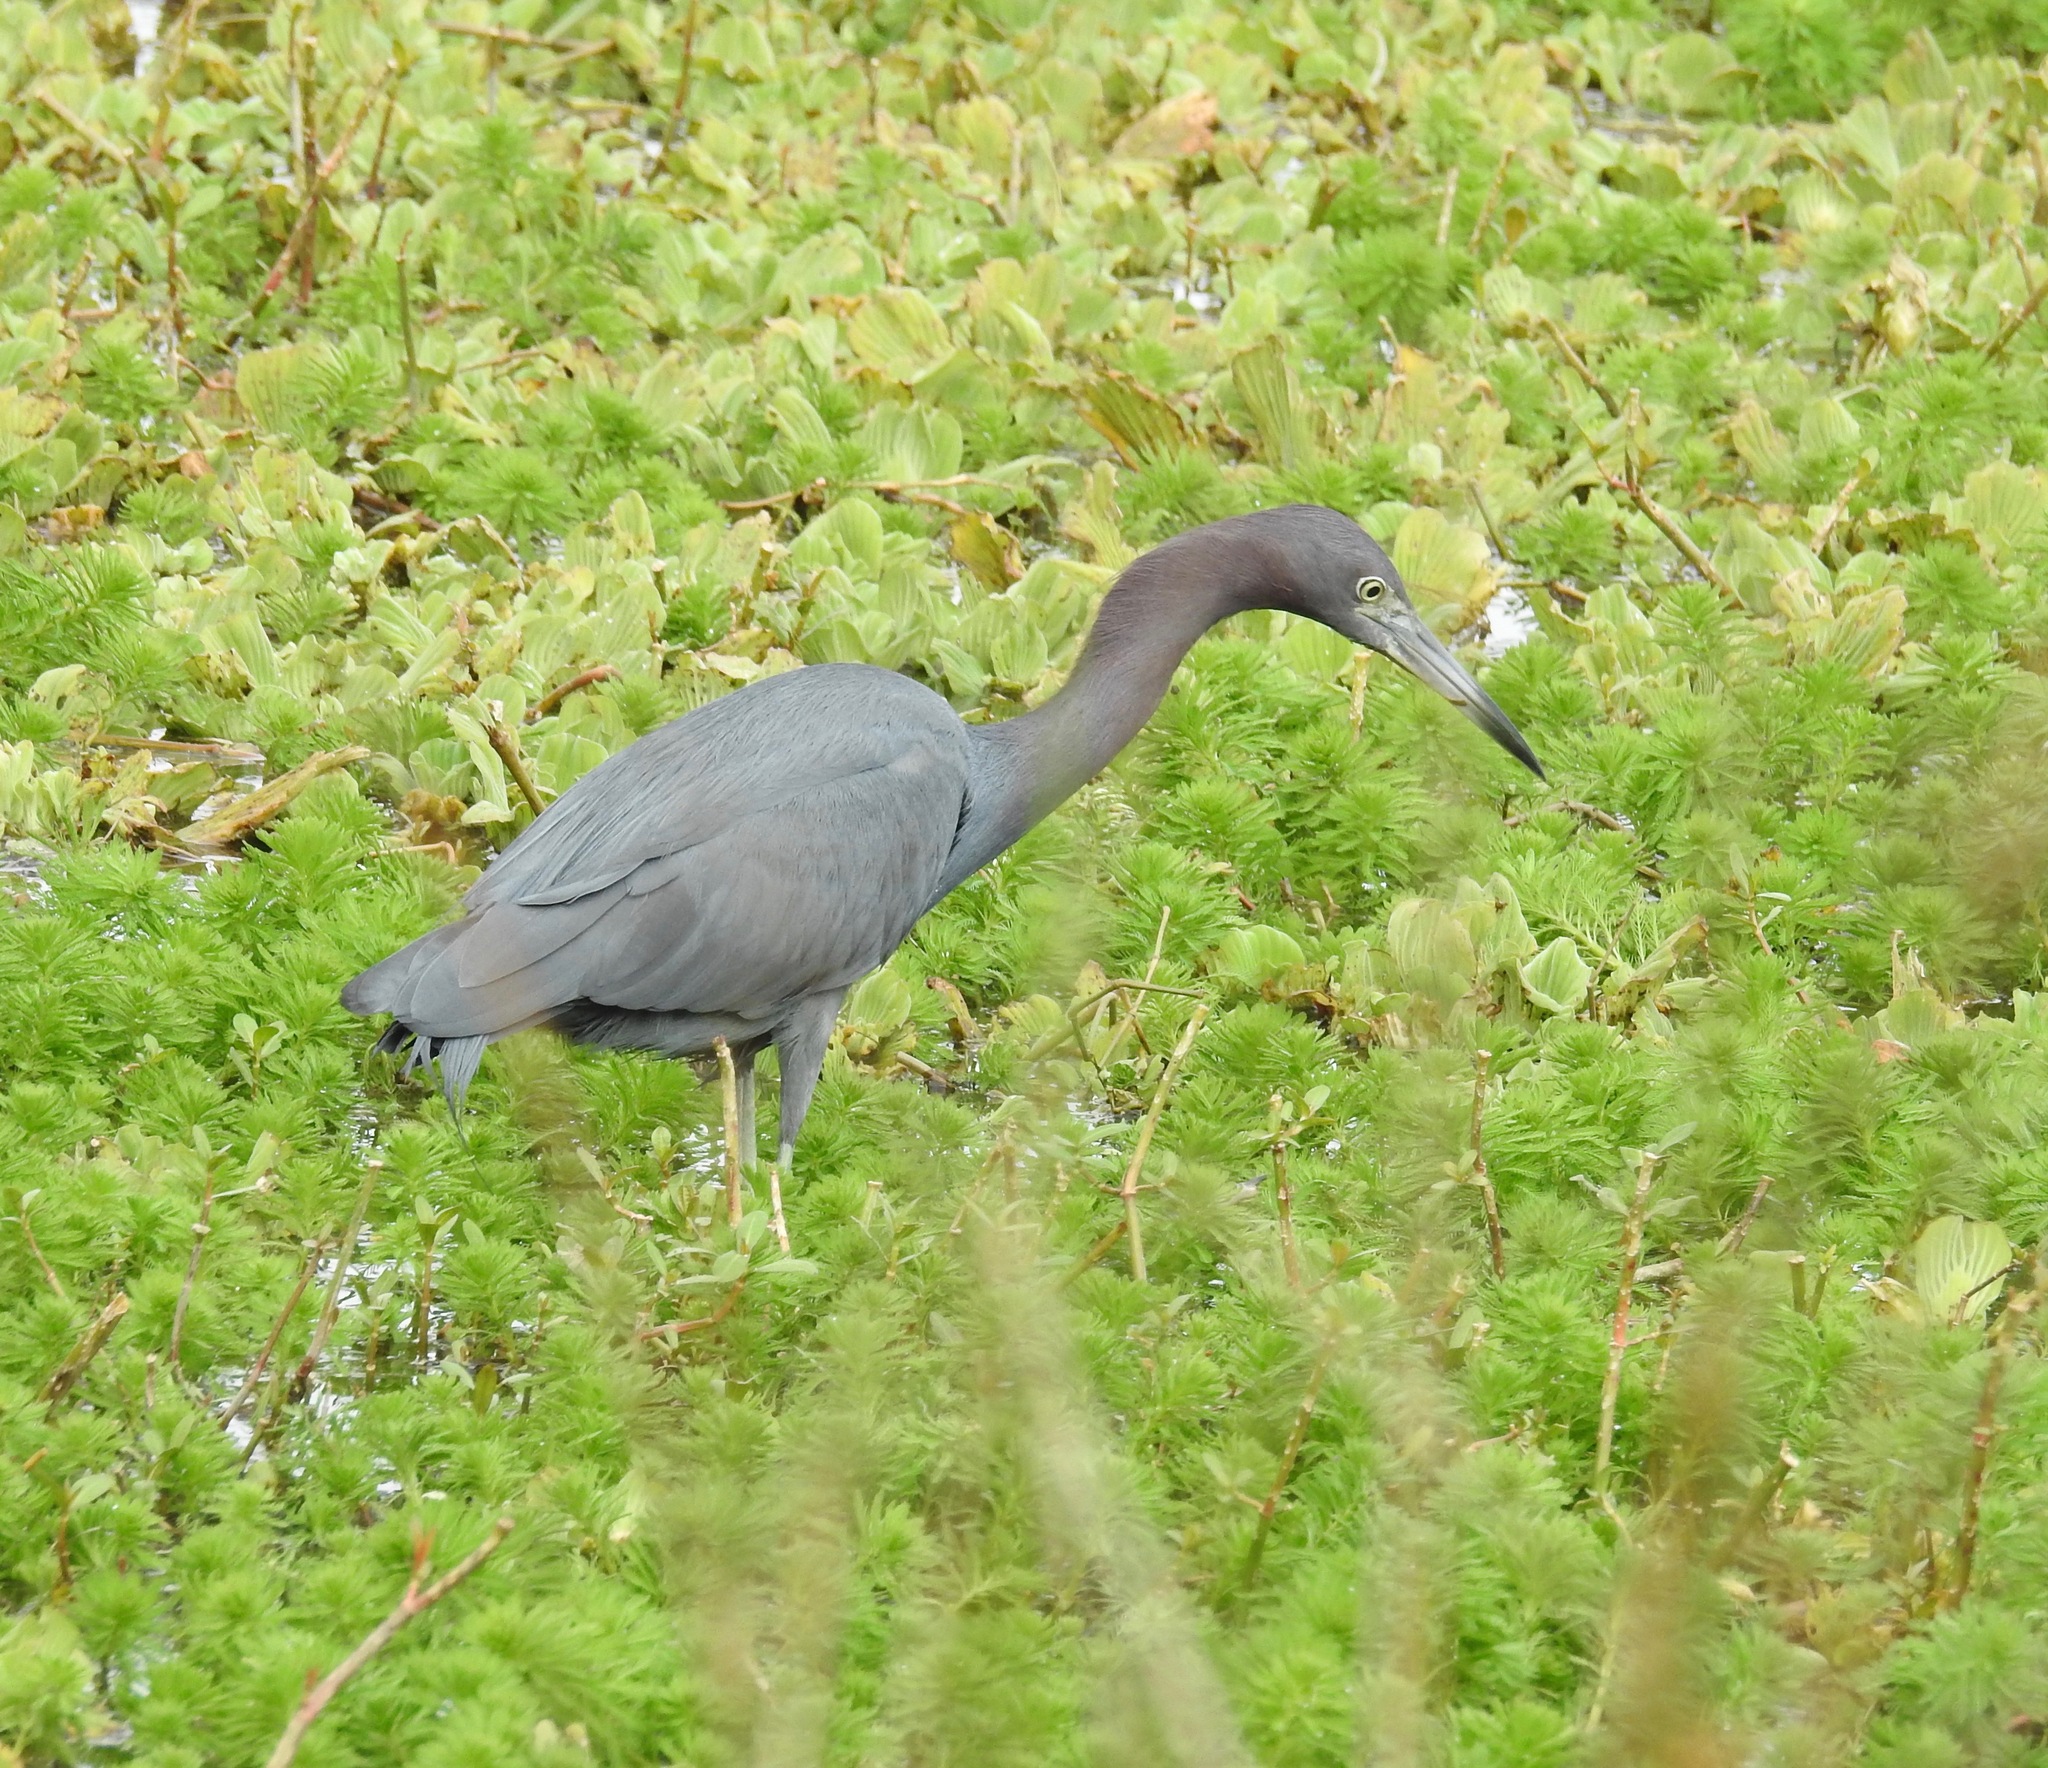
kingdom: Animalia
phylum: Chordata
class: Aves
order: Pelecaniformes
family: Ardeidae
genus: Egretta
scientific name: Egretta caerulea
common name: Little blue heron
